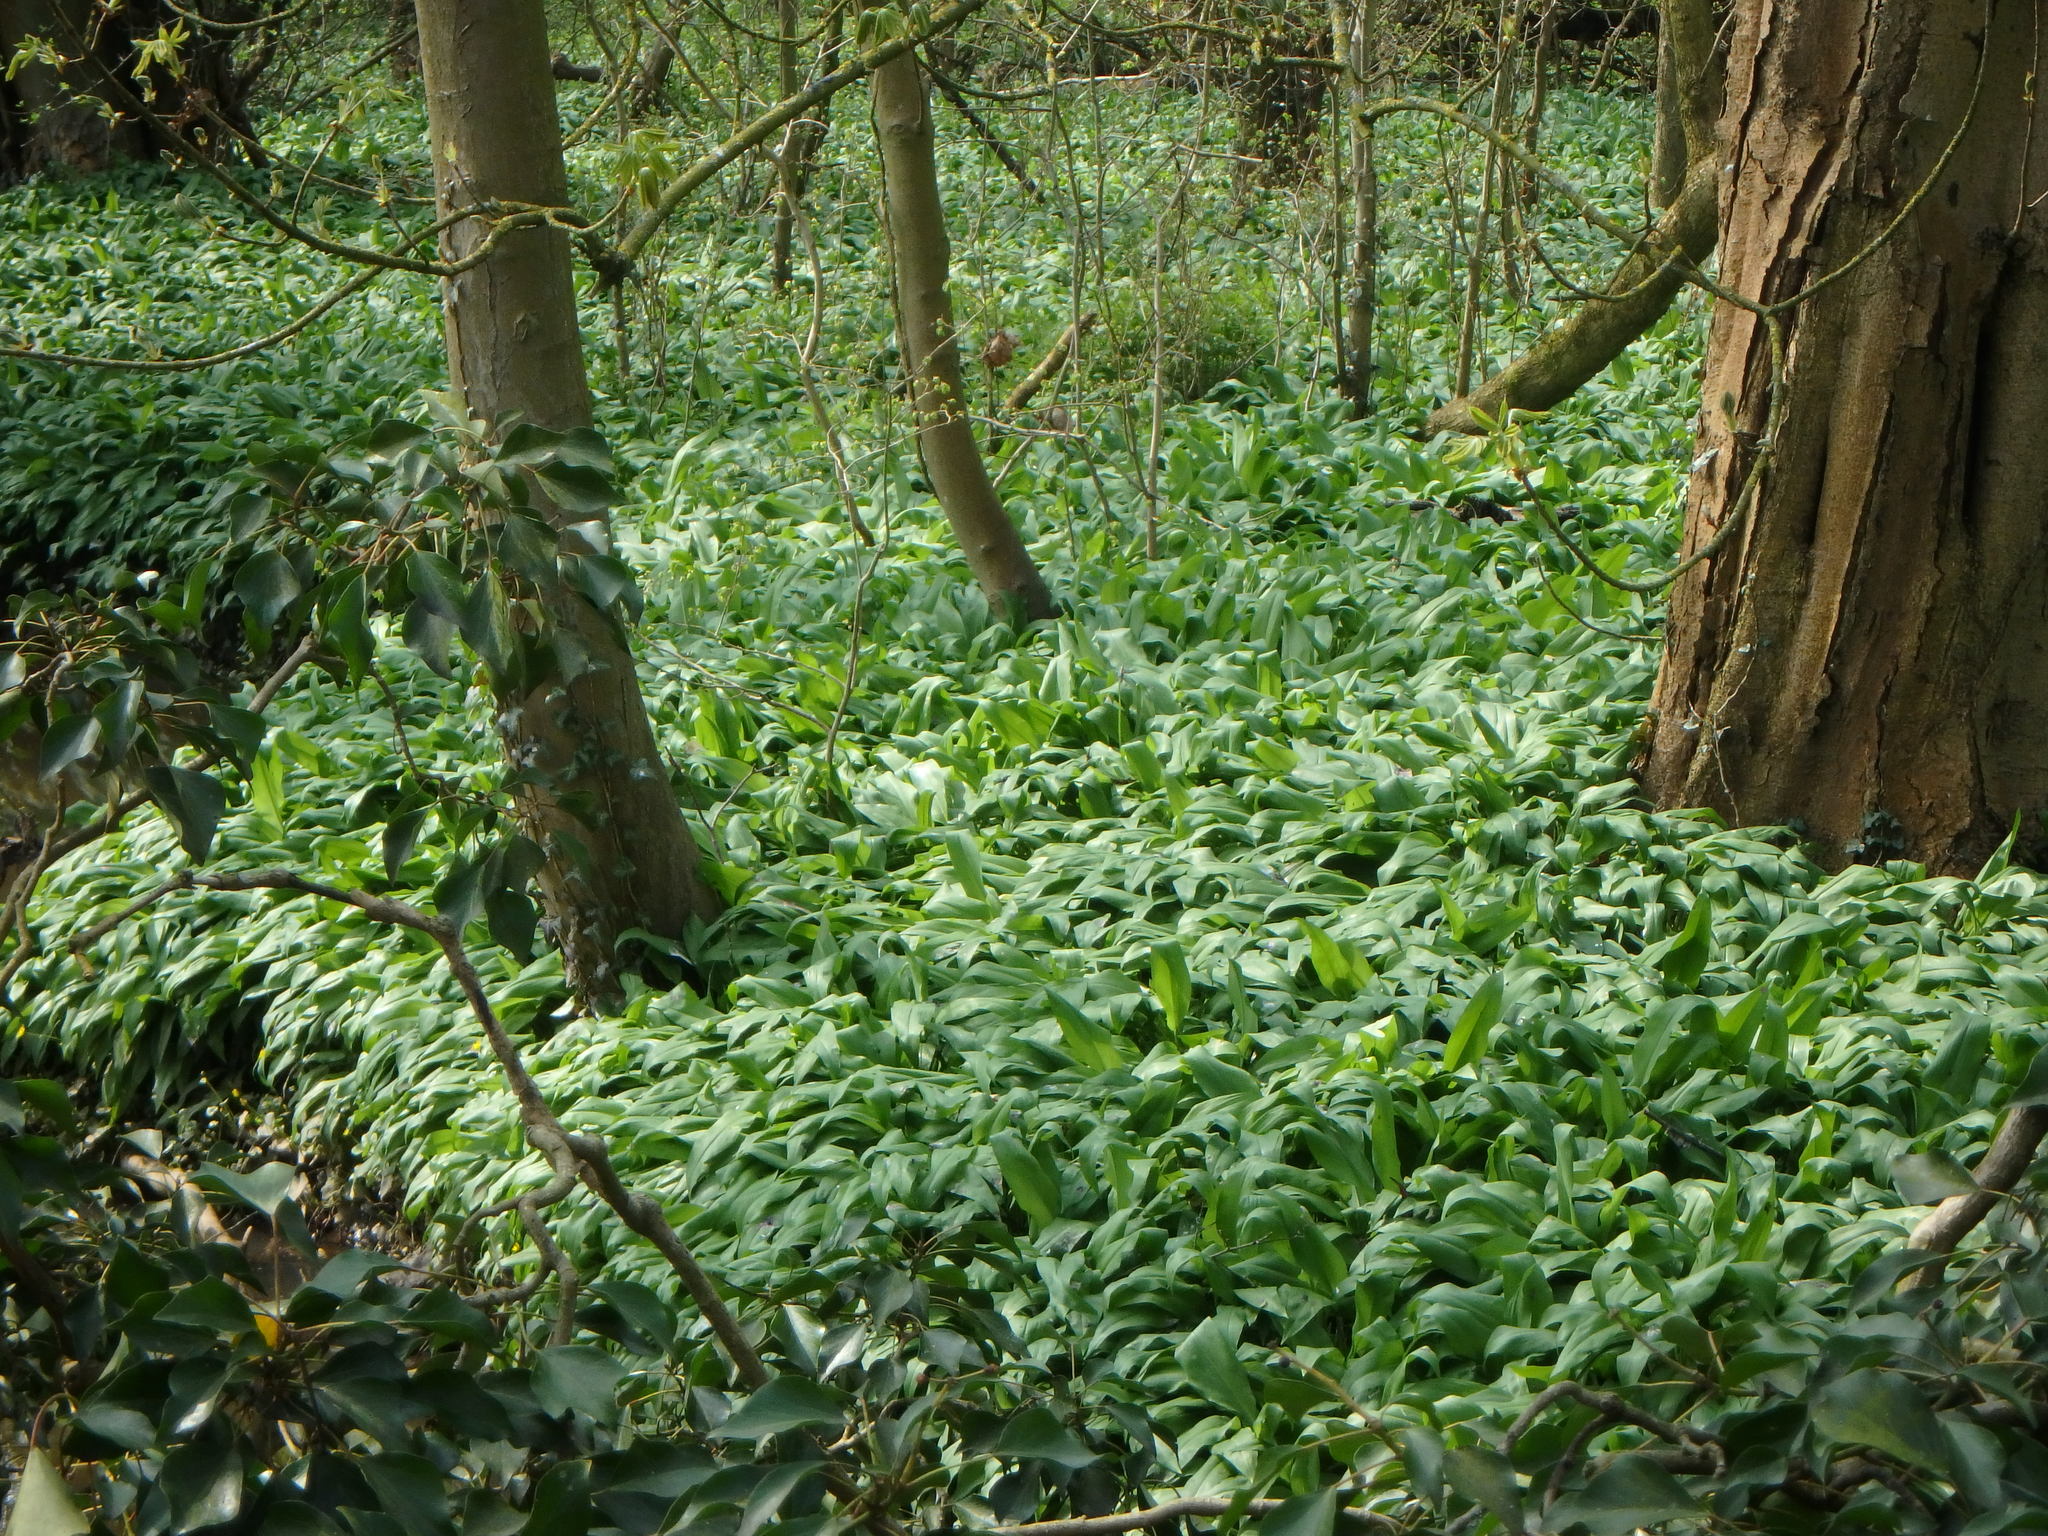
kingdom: Plantae
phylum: Tracheophyta
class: Liliopsida
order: Asparagales
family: Amaryllidaceae
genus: Allium
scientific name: Allium ursinum
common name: Ramsons
